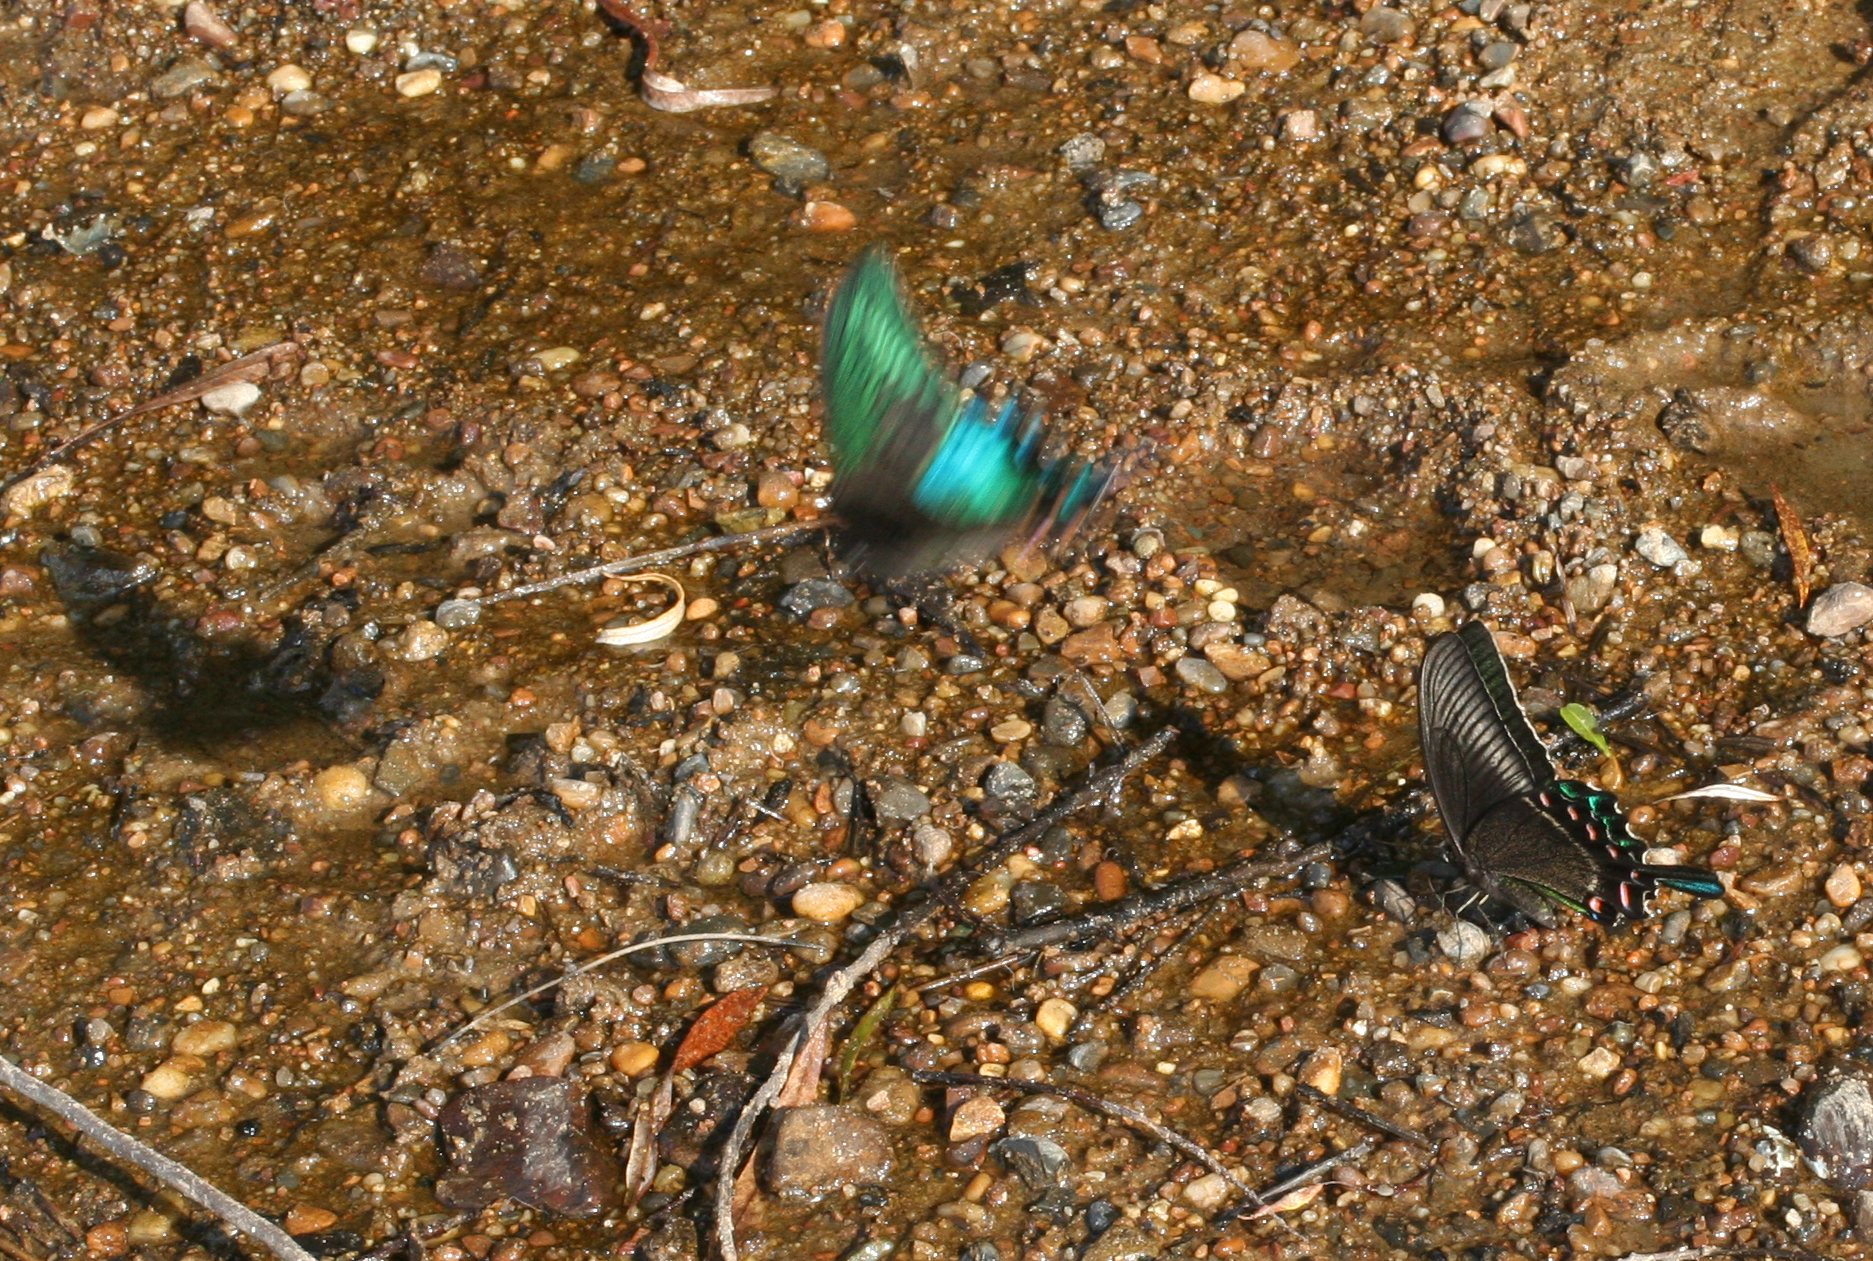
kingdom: Animalia
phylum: Arthropoda
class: Insecta
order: Lepidoptera
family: Papilionidae
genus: Papilio
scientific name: Papilio maackii
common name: Alpine black swallowtail
